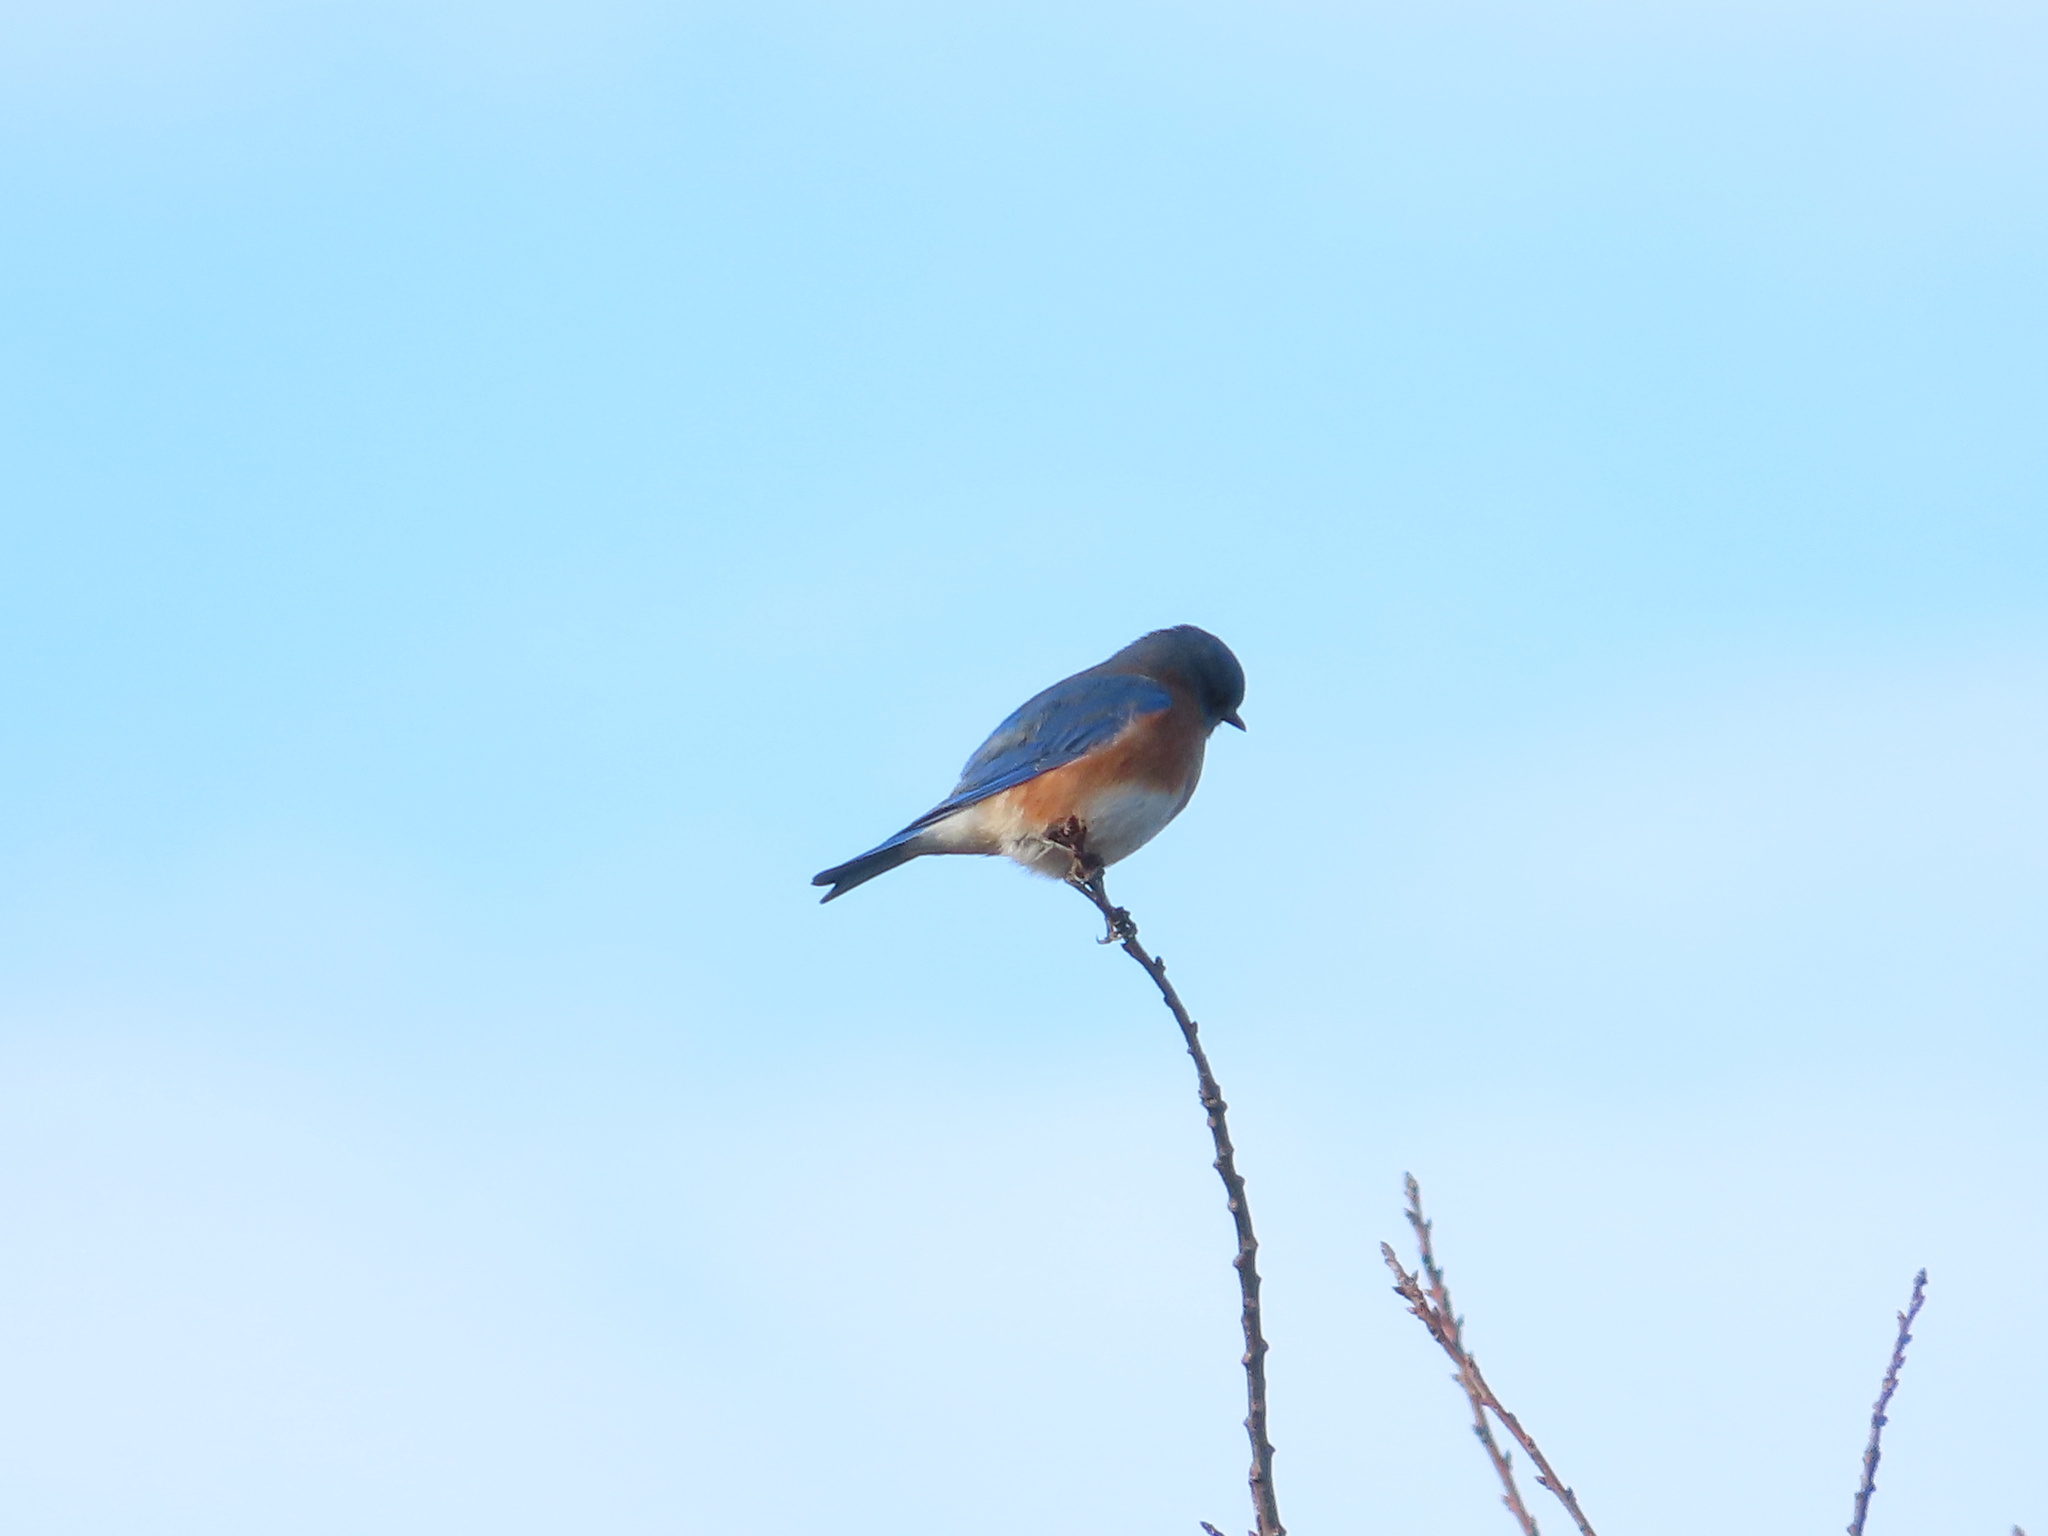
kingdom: Animalia
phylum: Chordata
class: Aves
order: Passeriformes
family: Turdidae
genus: Sialia
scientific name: Sialia sialis
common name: Eastern bluebird
